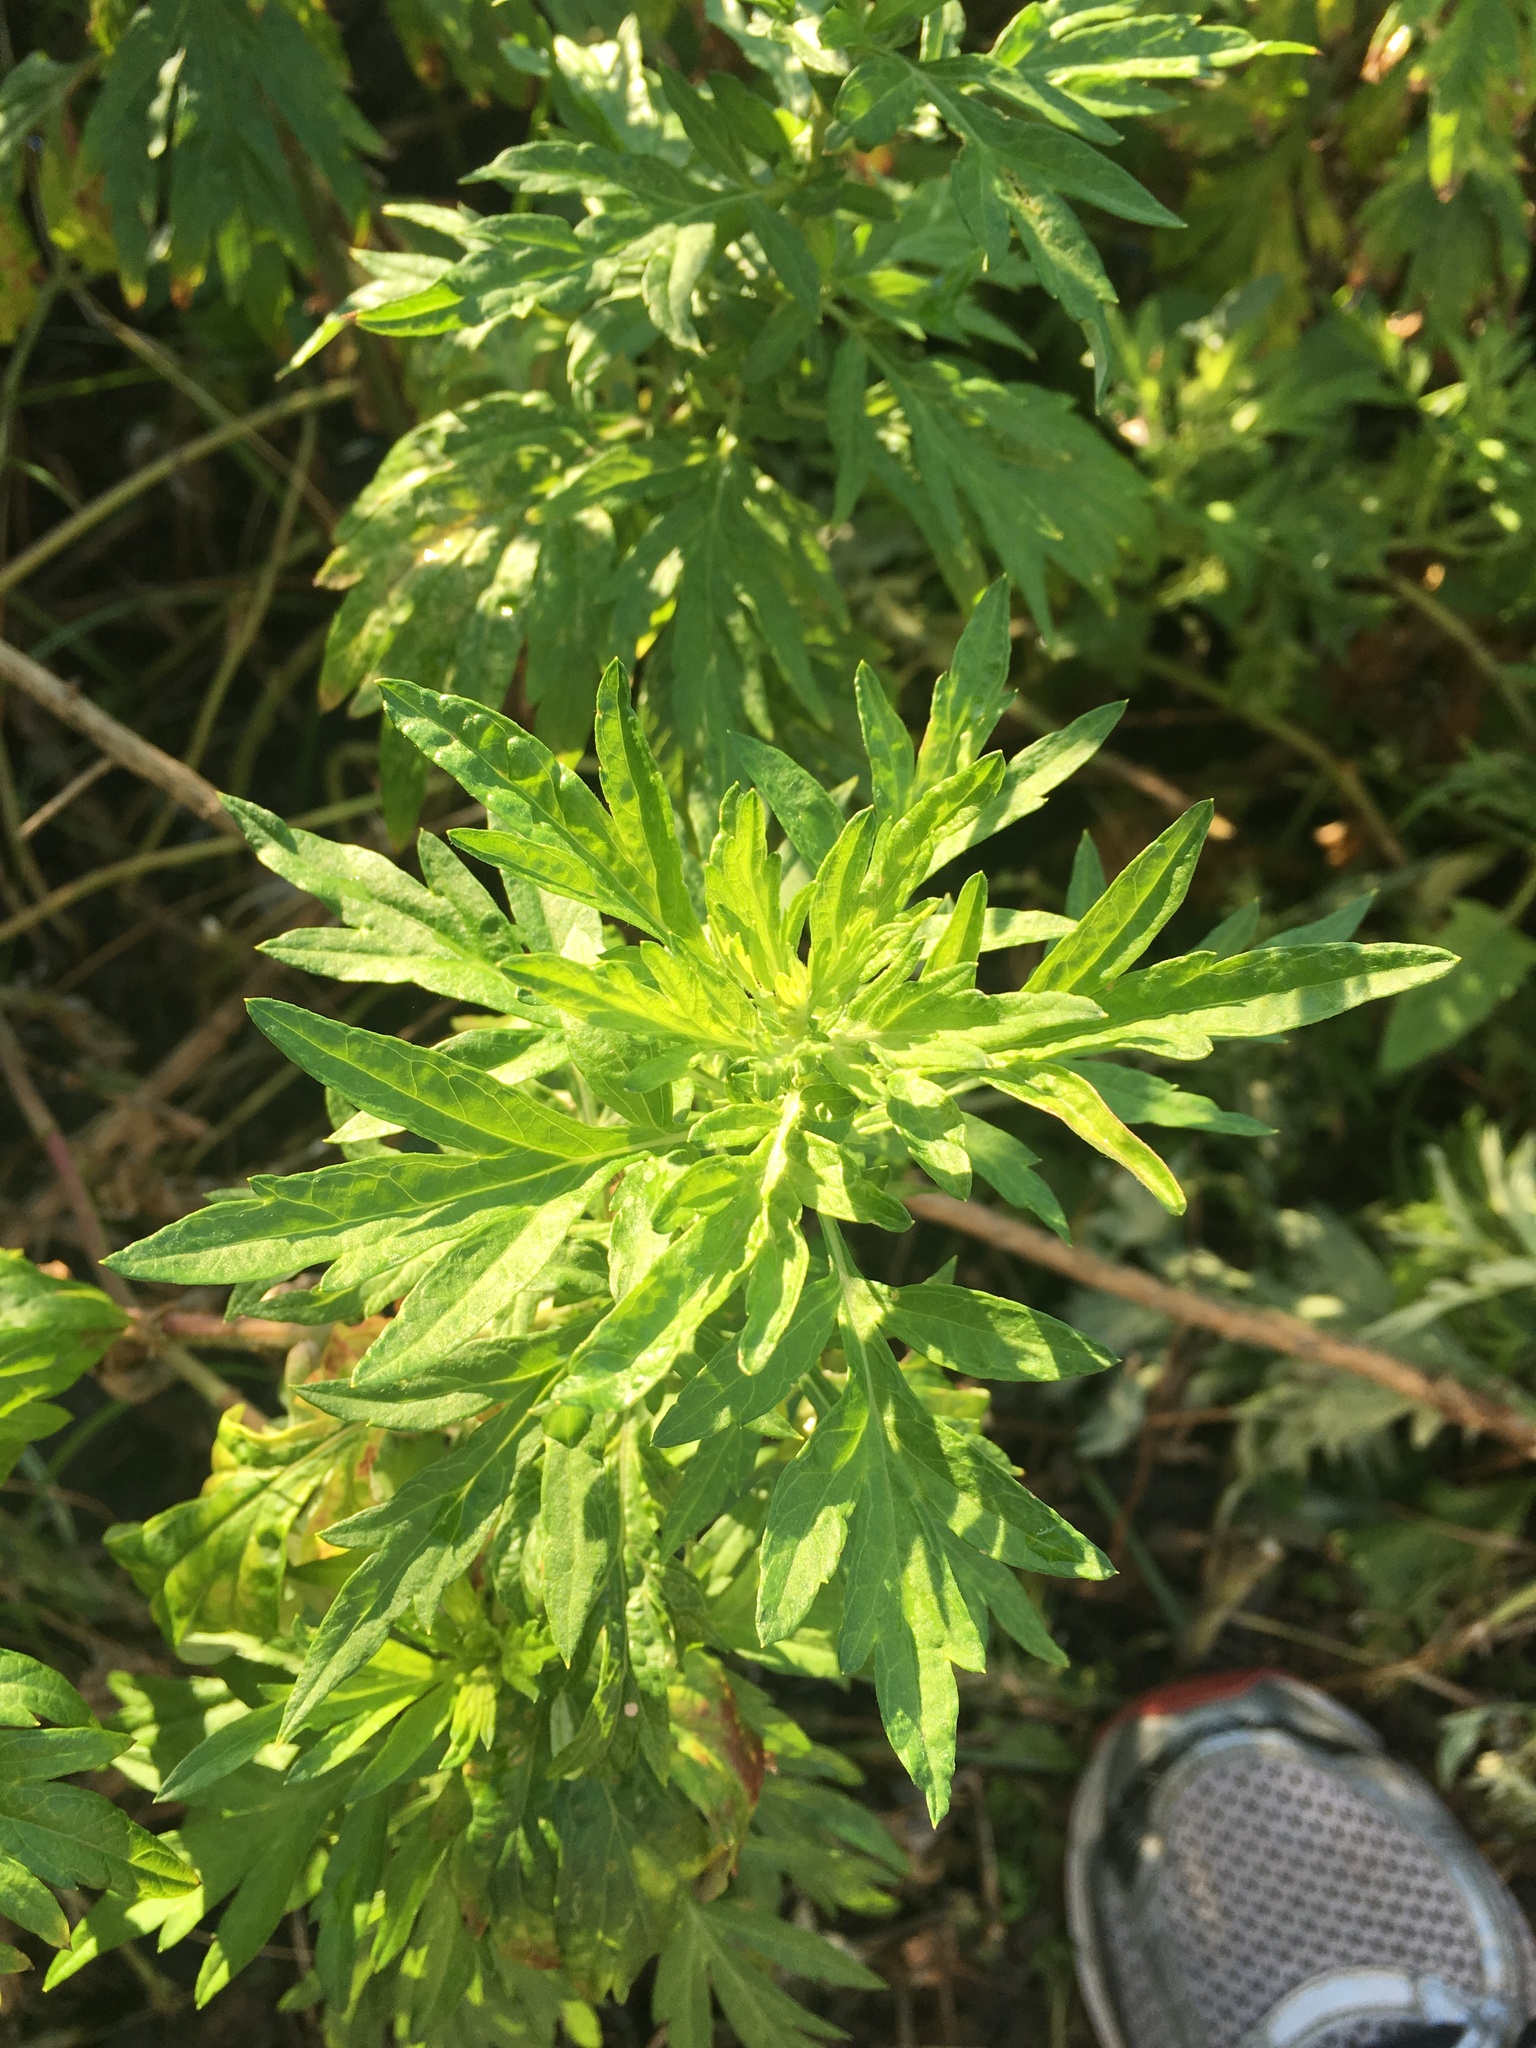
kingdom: Plantae
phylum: Tracheophyta
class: Magnoliopsida
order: Asterales
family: Asteraceae
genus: Artemisia
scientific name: Artemisia vulgaris
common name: Mugwort
